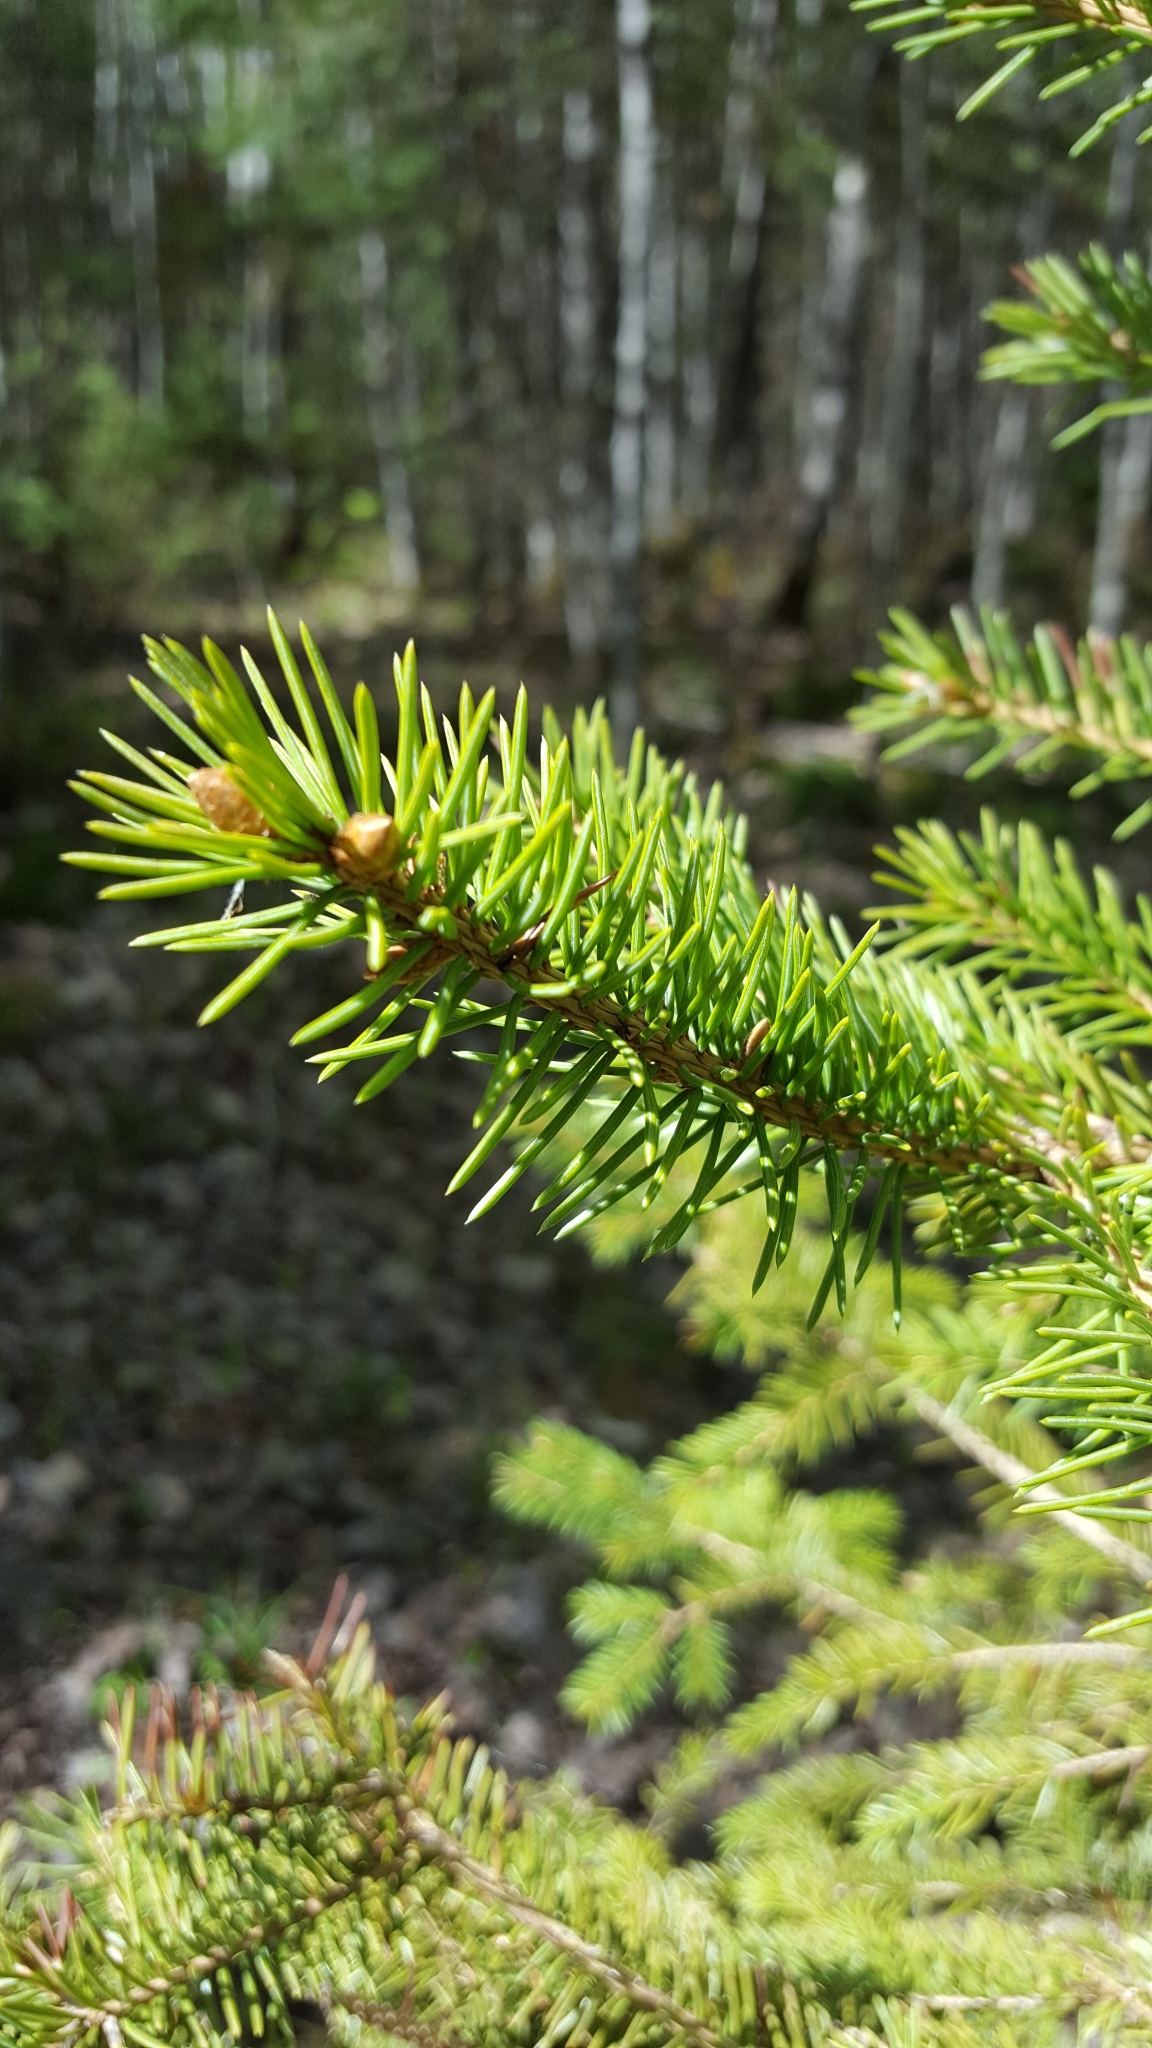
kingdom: Plantae
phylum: Tracheophyta
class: Pinopsida
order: Pinales
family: Pinaceae
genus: Picea
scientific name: Picea glauca
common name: White spruce
